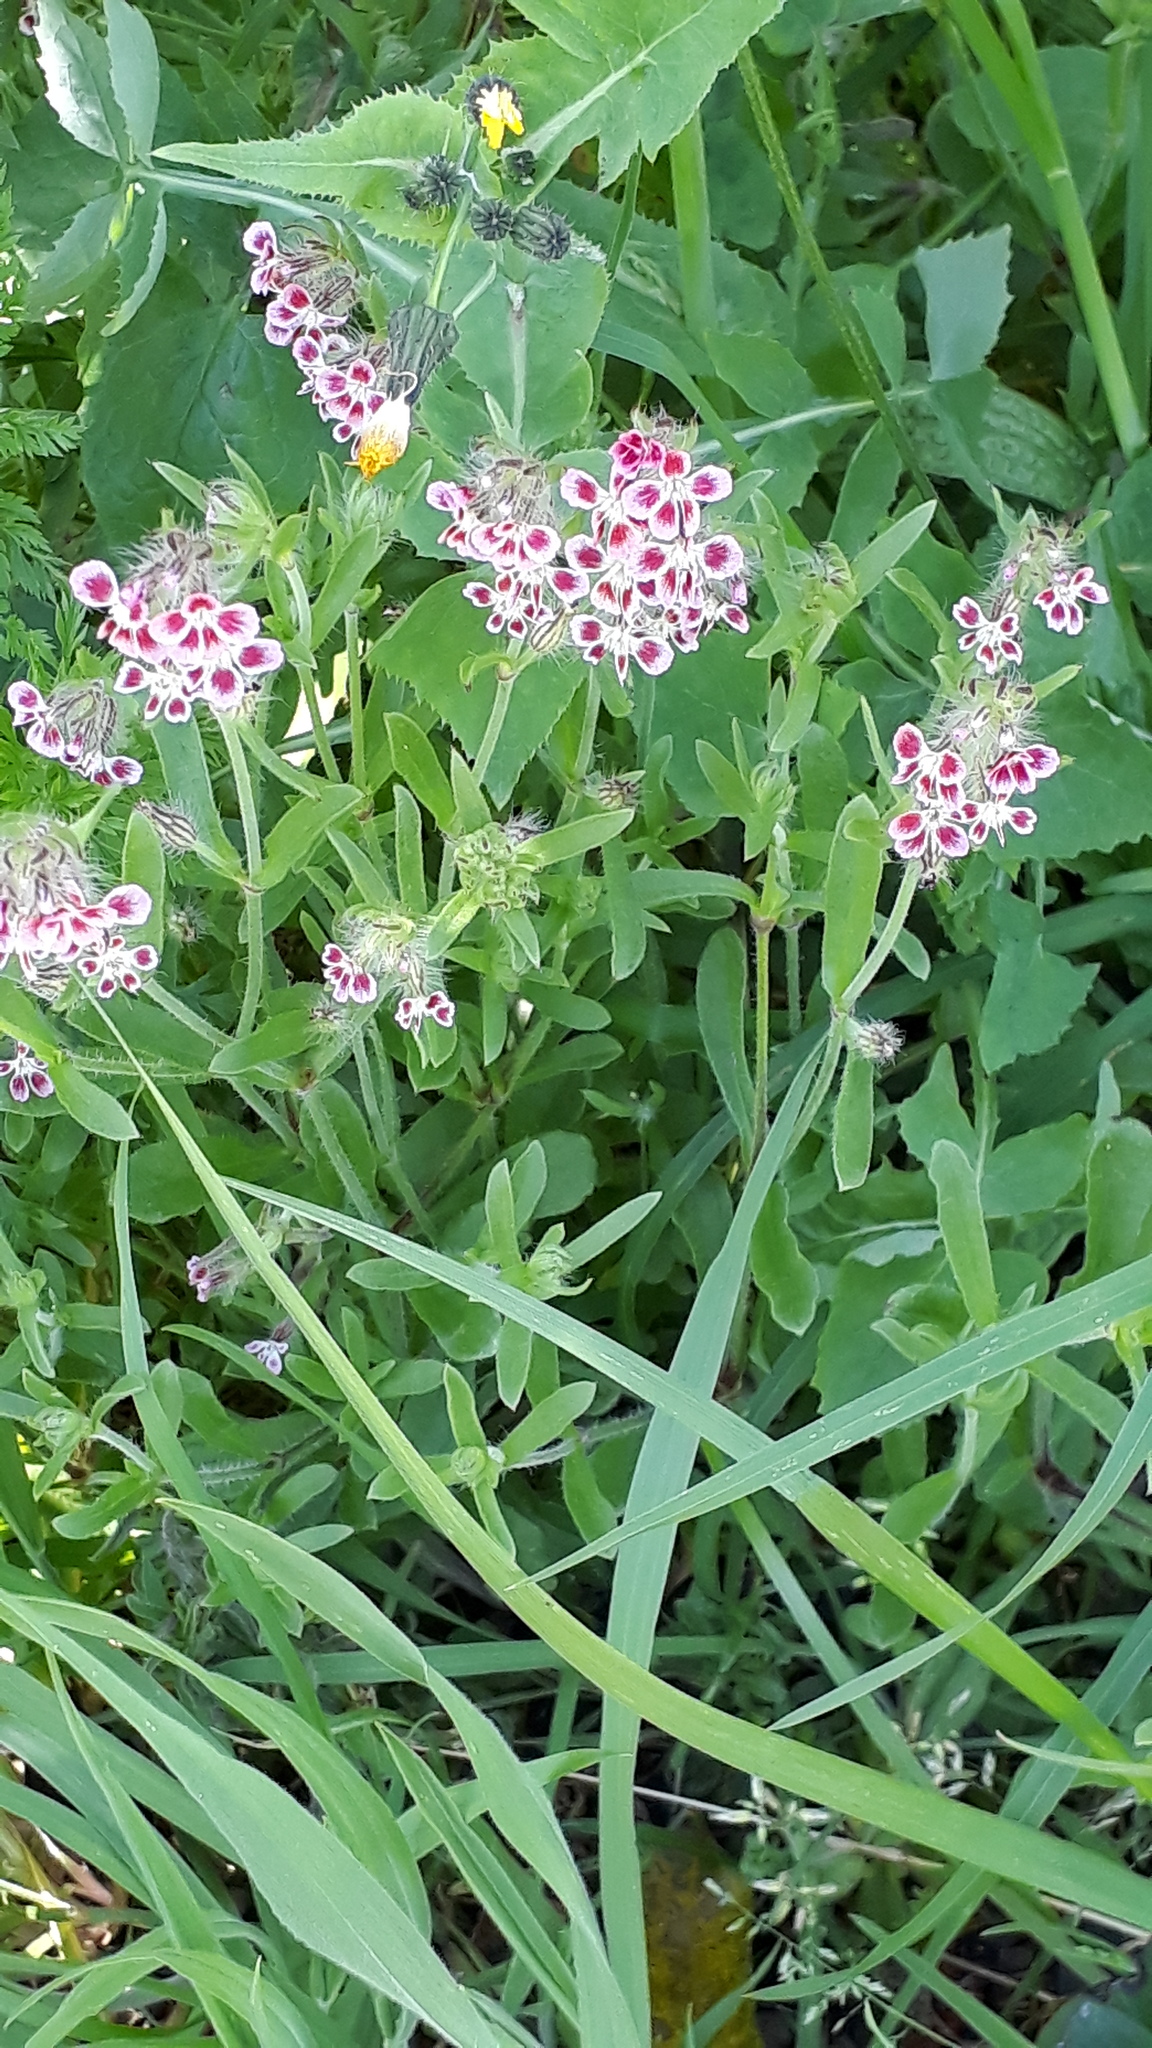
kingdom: Plantae
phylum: Tracheophyta
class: Magnoliopsida
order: Caryophyllales
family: Caryophyllaceae
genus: Silene
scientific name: Silene gallica
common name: Small-flowered catchfly
